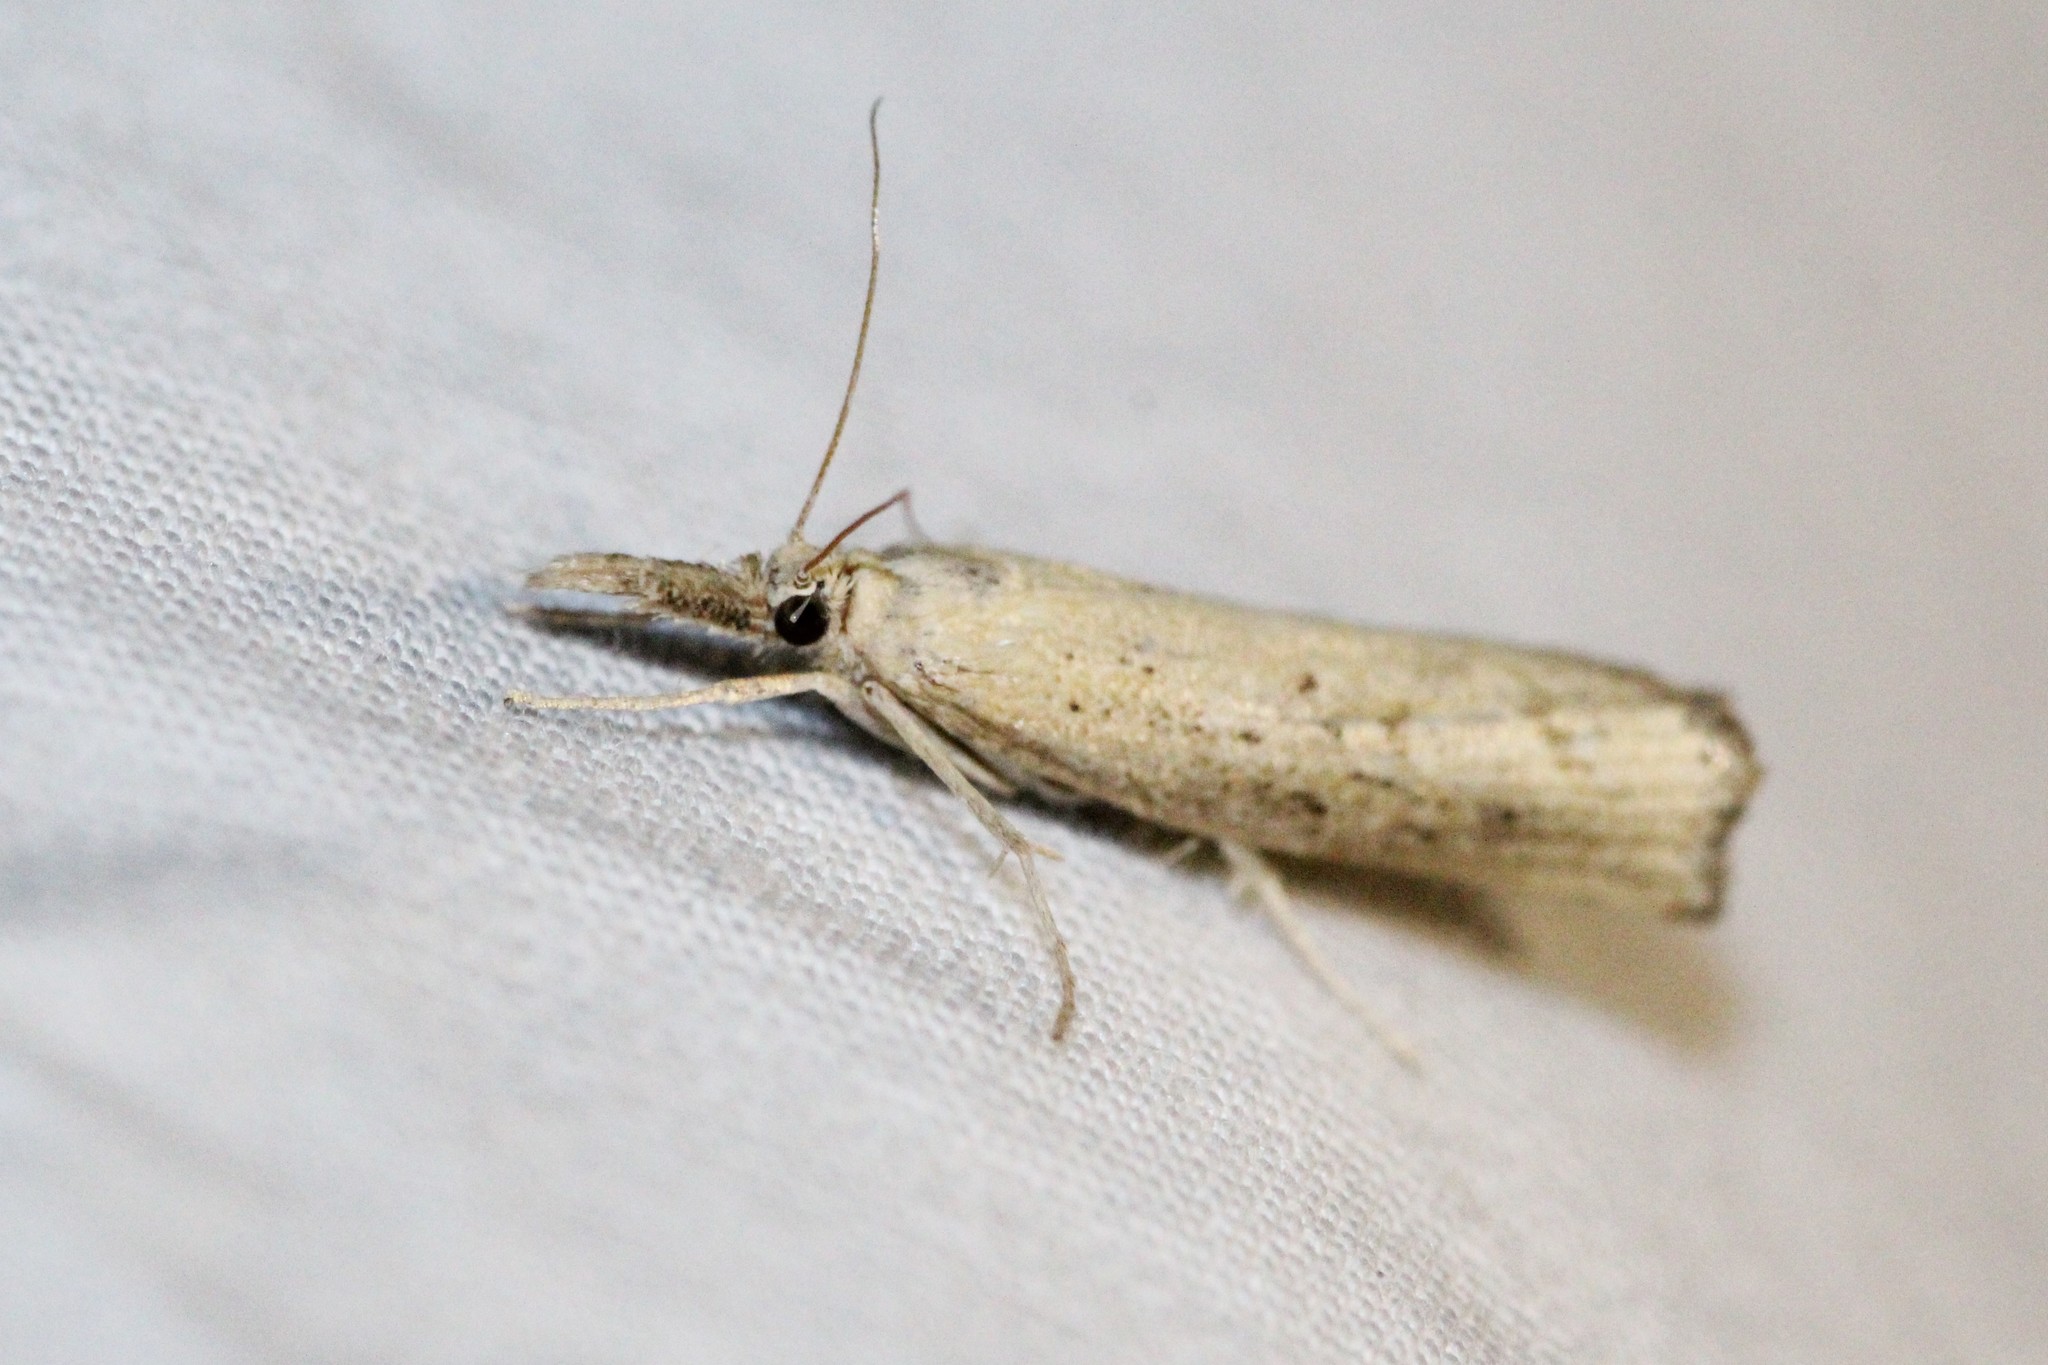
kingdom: Animalia
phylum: Arthropoda
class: Insecta
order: Lepidoptera
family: Crambidae
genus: Fissicrambus
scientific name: Fissicrambus mutabilis
